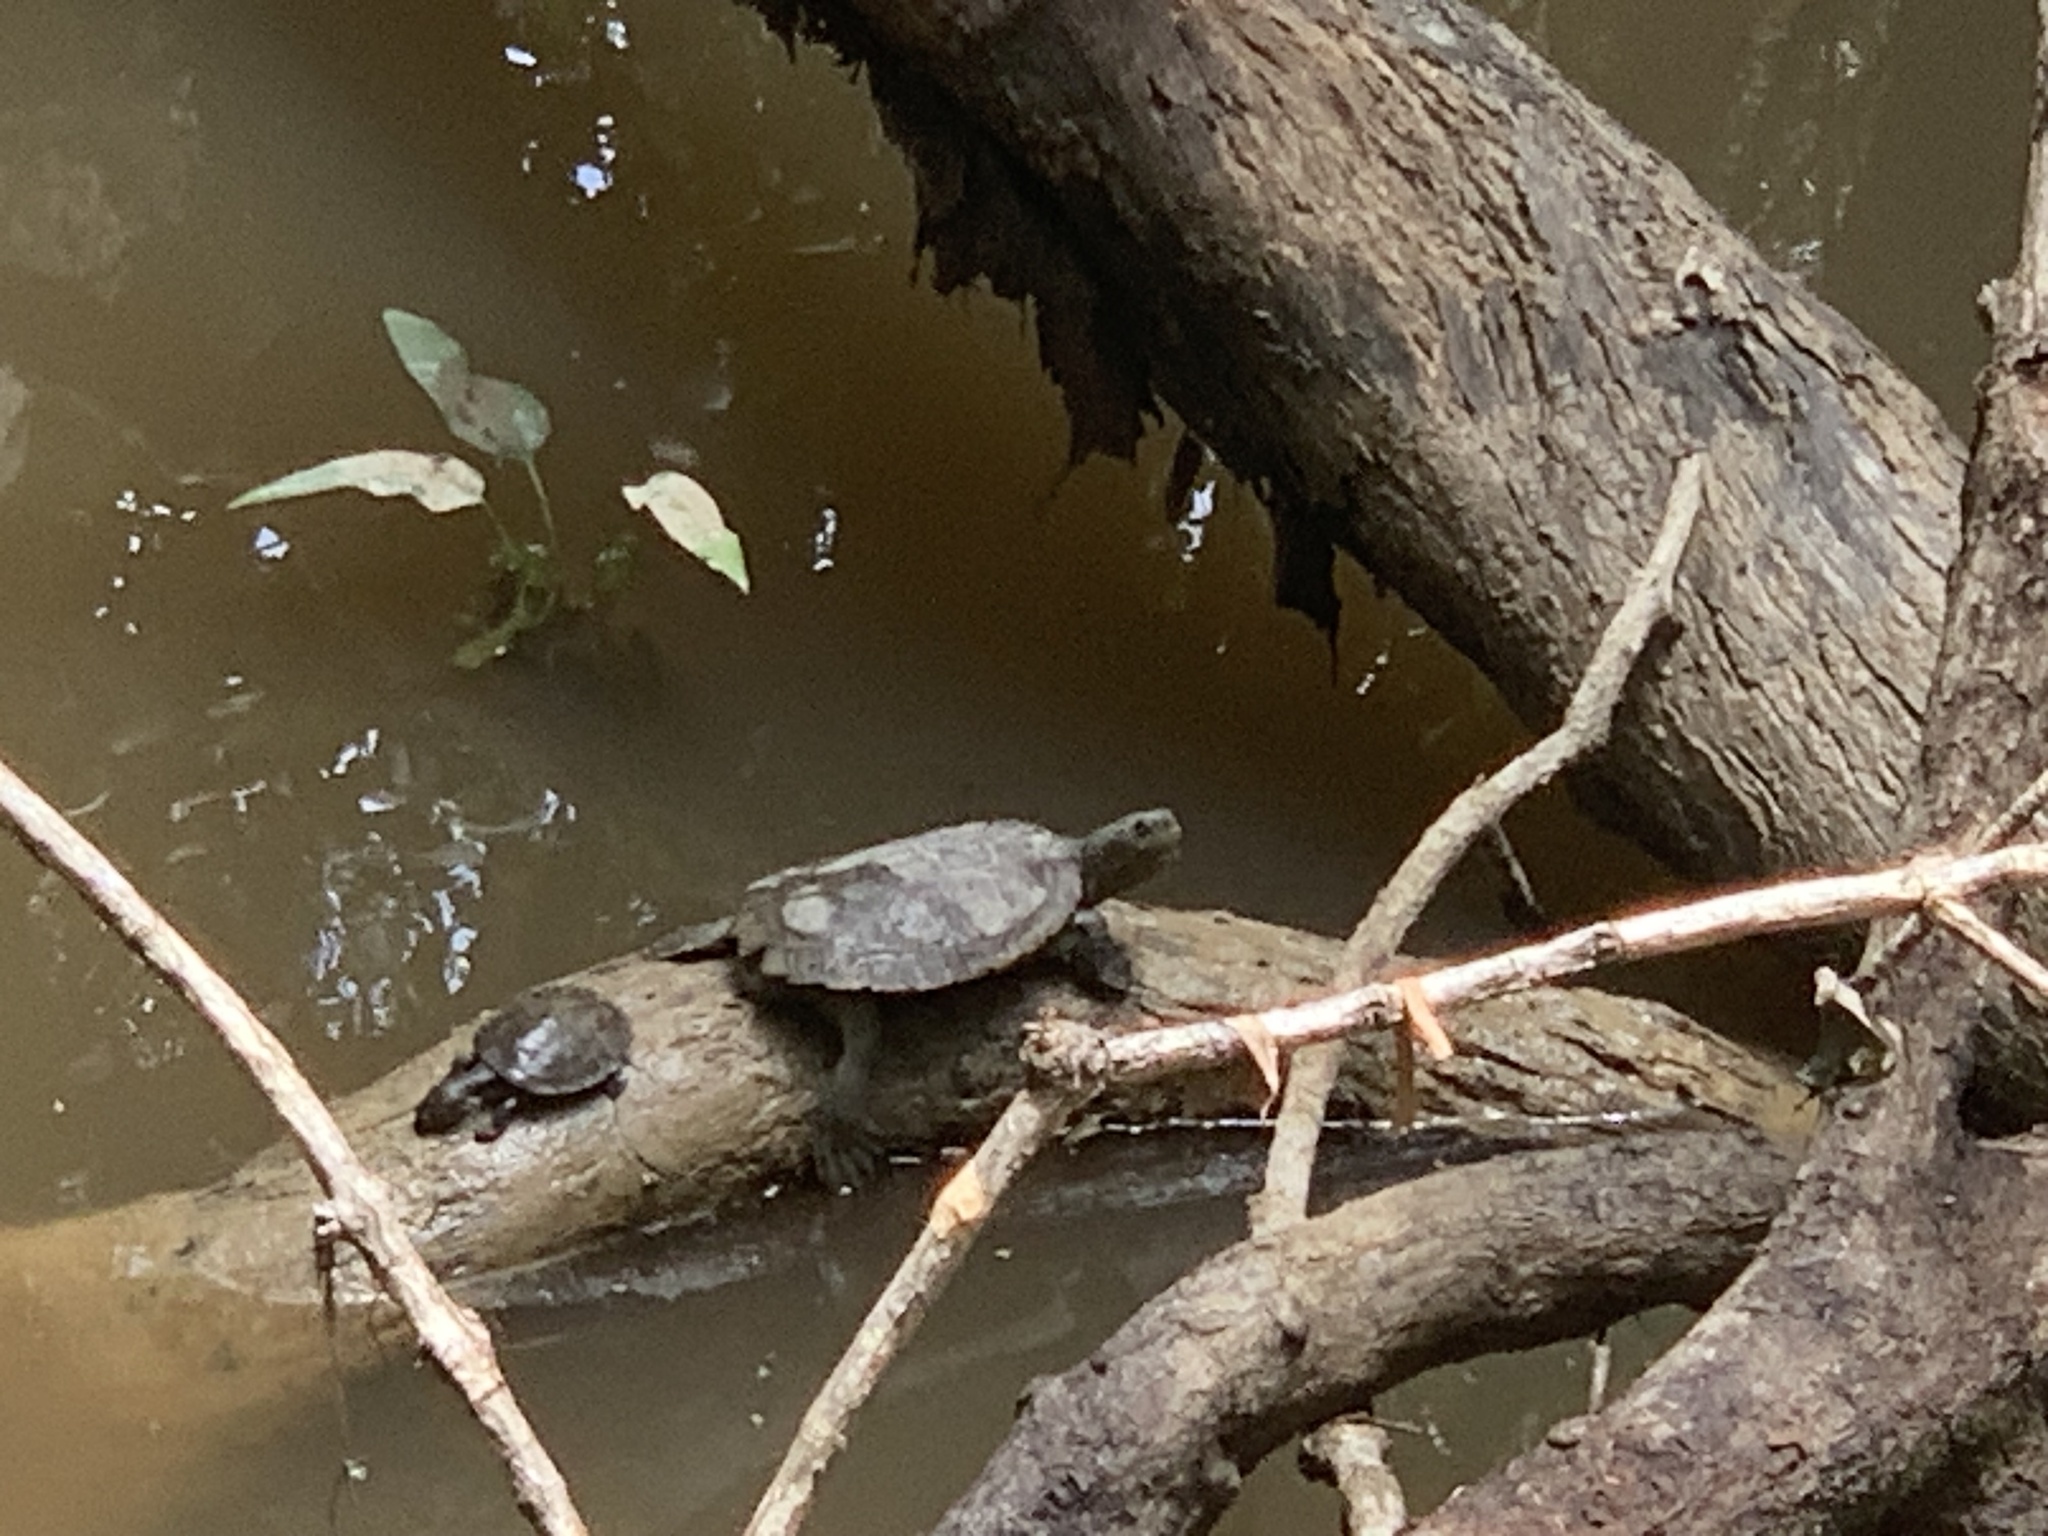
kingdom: Animalia
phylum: Chordata
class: Testudines
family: Chelidae
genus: Myuchelys
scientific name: Myuchelys latisternum
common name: Serrated snapping turtle
